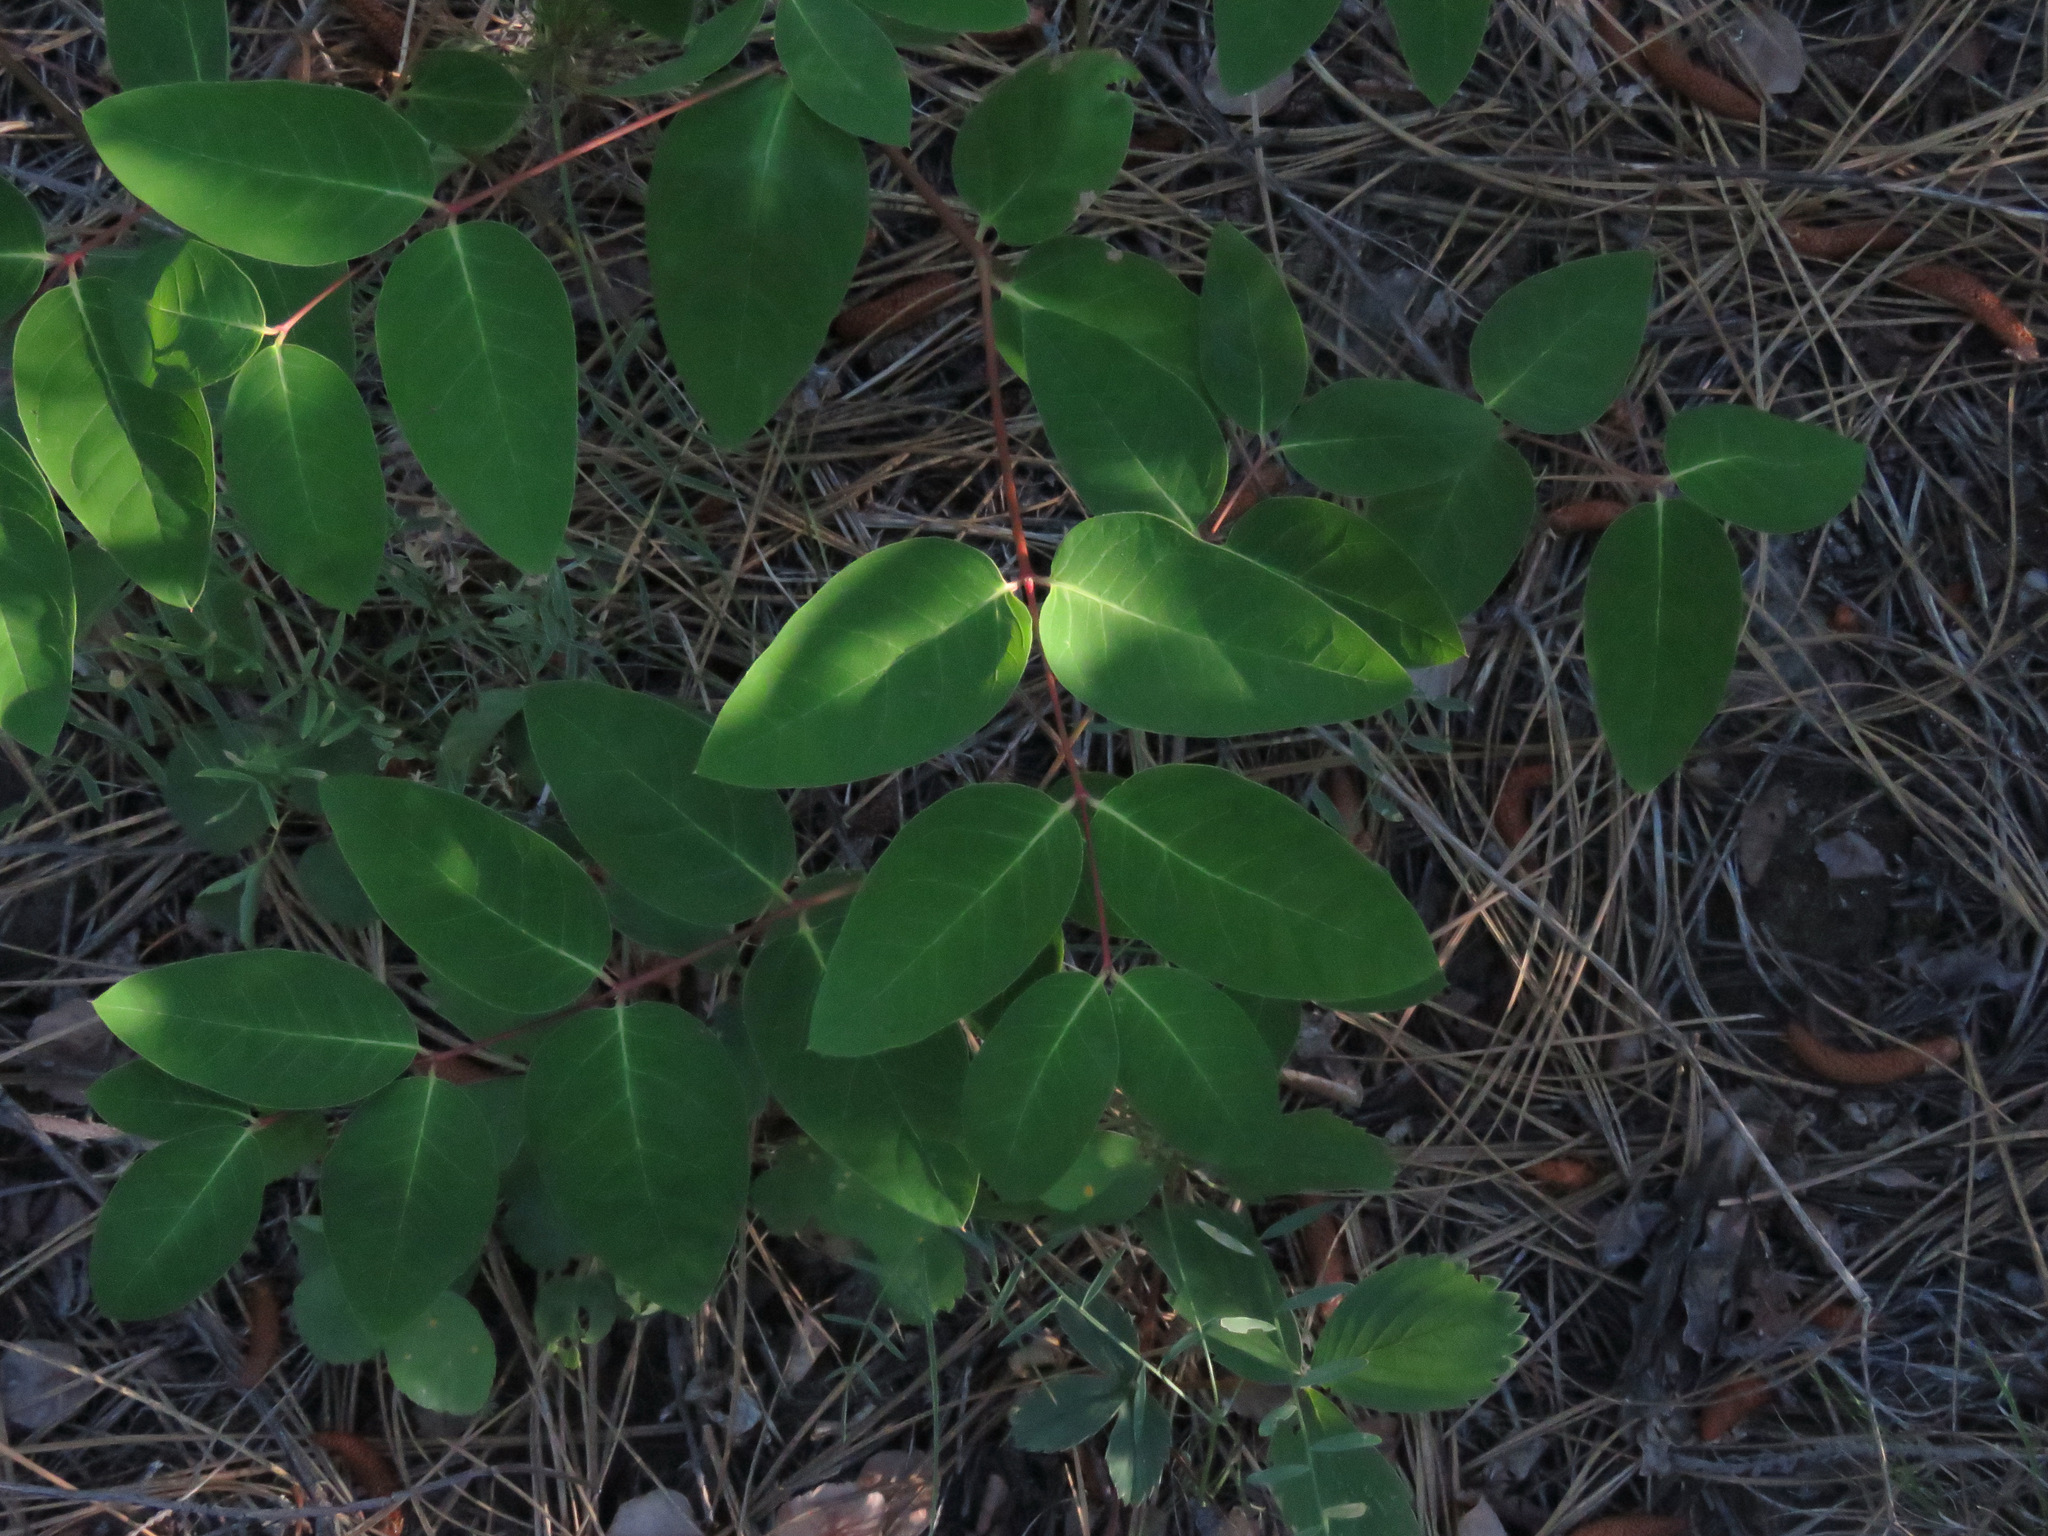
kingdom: Plantae
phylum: Tracheophyta
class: Magnoliopsida
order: Gentianales
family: Apocynaceae
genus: Apocynum
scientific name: Apocynum androsaemifolium
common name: Spreading dogbane
